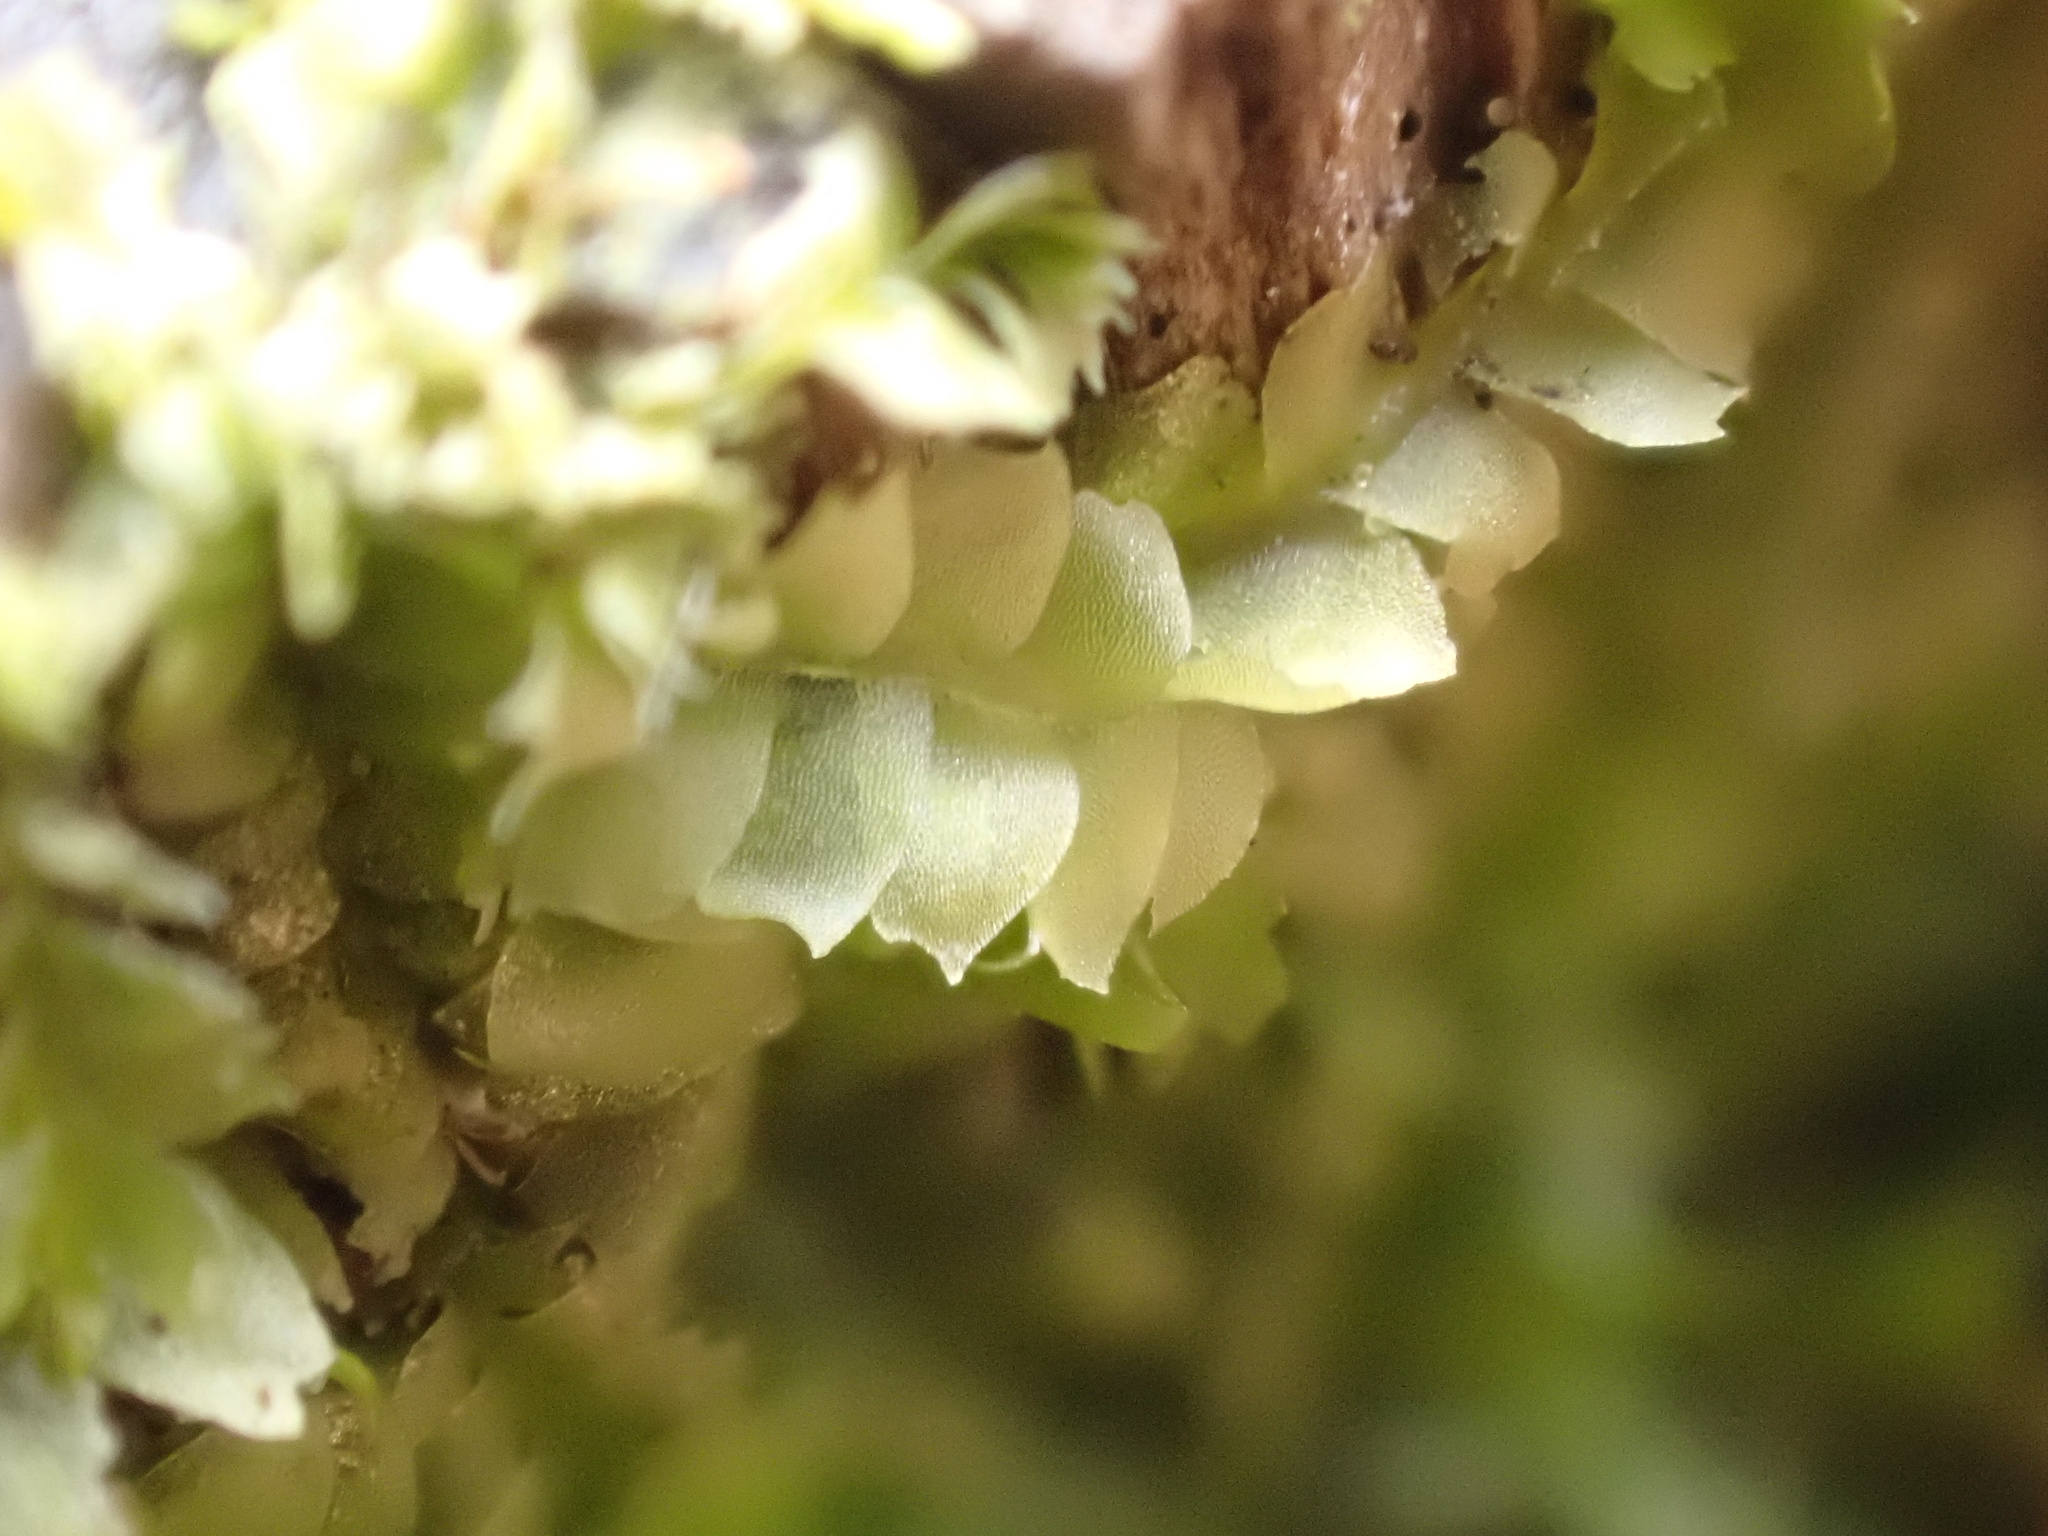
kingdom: Plantae
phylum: Marchantiophyta
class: Jungermanniopsida
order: Jungermanniales
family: Lophocoleaceae
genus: Lophocolea
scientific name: Lophocolea heterophylla
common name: Variable-leaved crestwort
